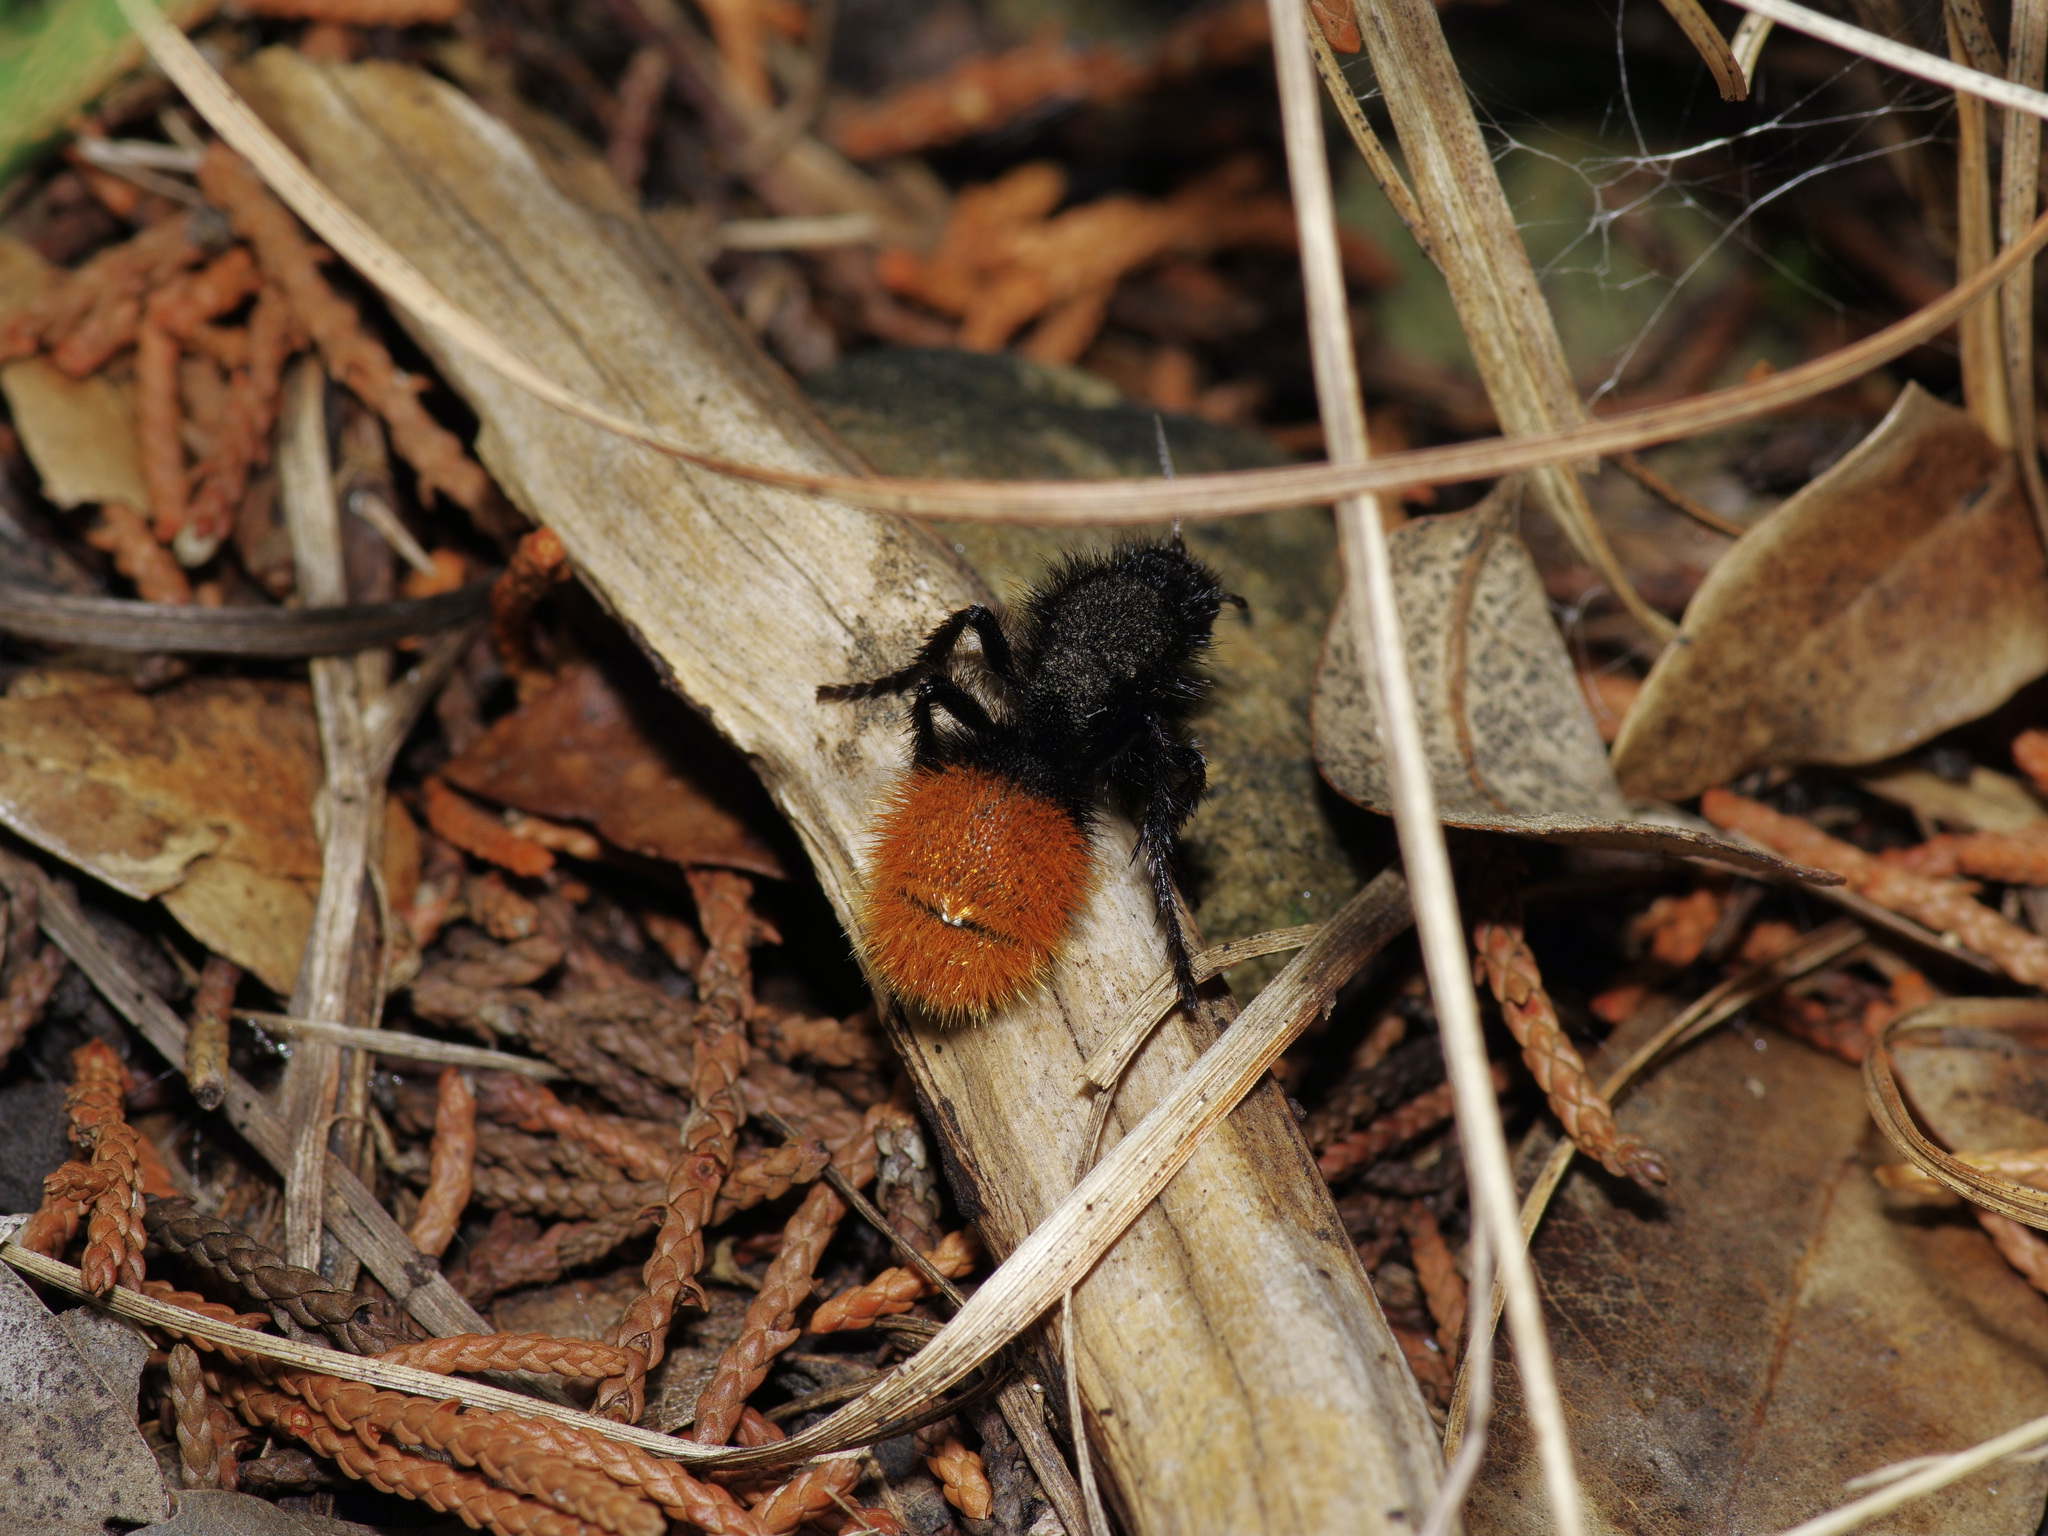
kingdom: Animalia
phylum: Arthropoda
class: Insecta
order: Hymenoptera
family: Mutillidae
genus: Dasymutilla
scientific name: Dasymutilla
